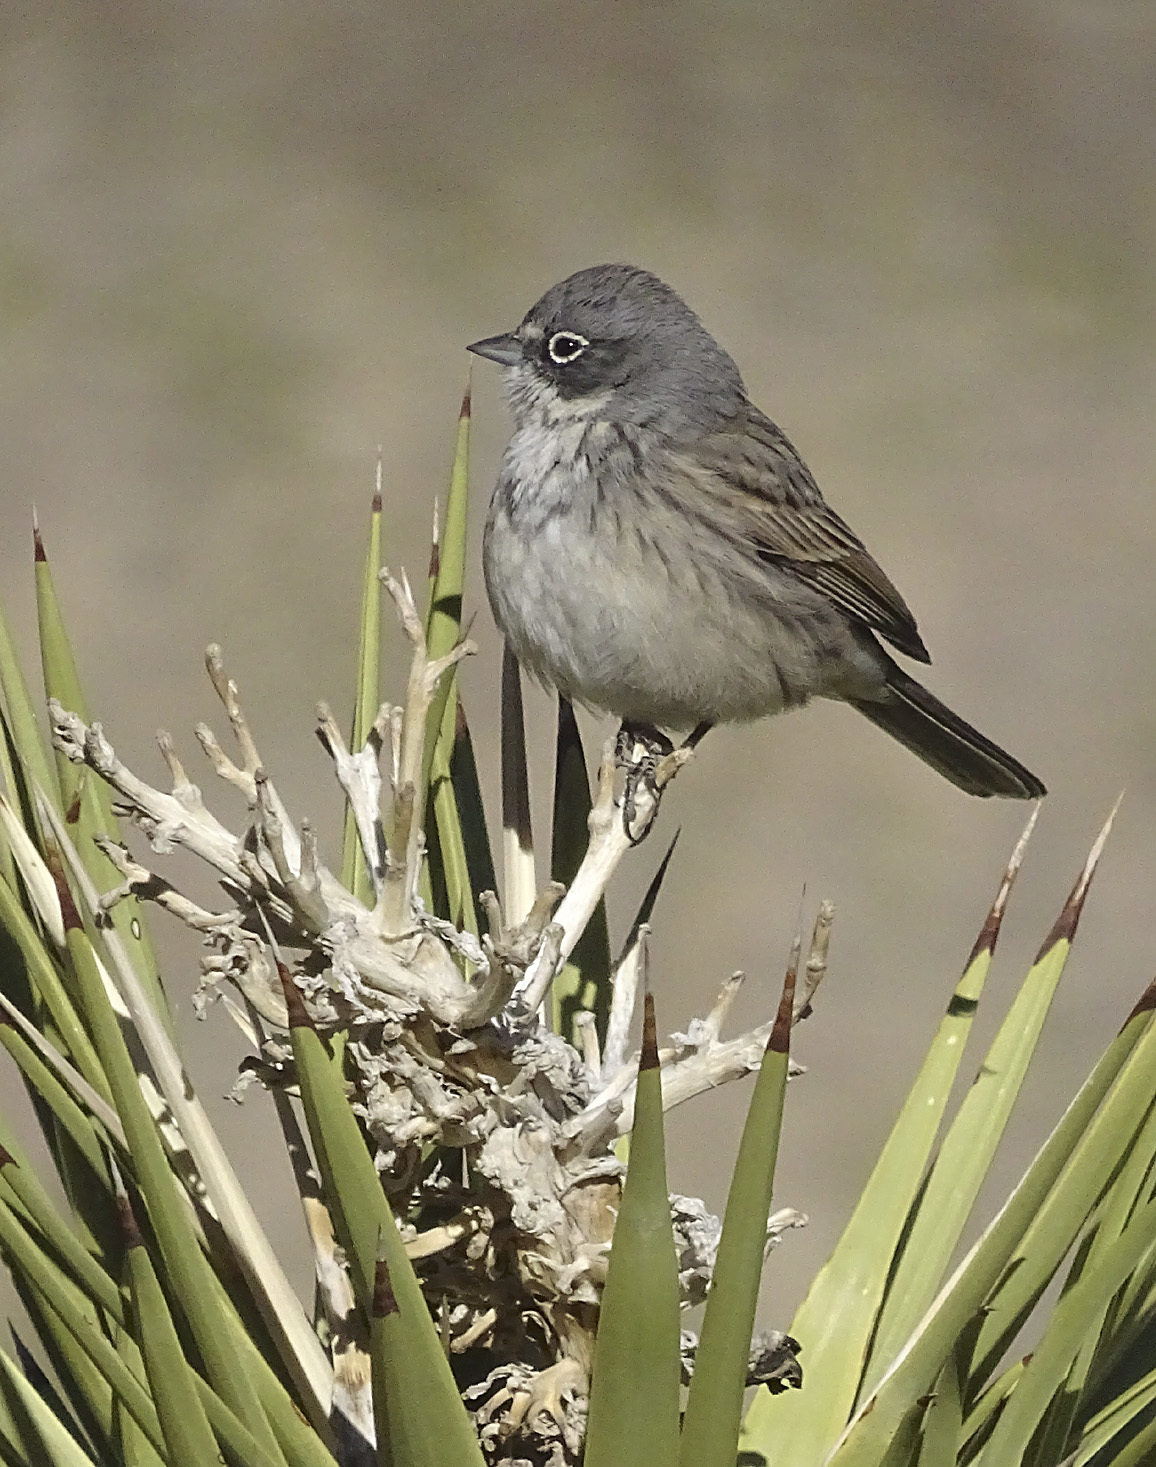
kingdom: Animalia
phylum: Chordata
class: Aves
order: Passeriformes
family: Passerellidae
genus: Artemisiospiza
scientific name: Artemisiospiza nevadensis
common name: Sagebrush sparrow
